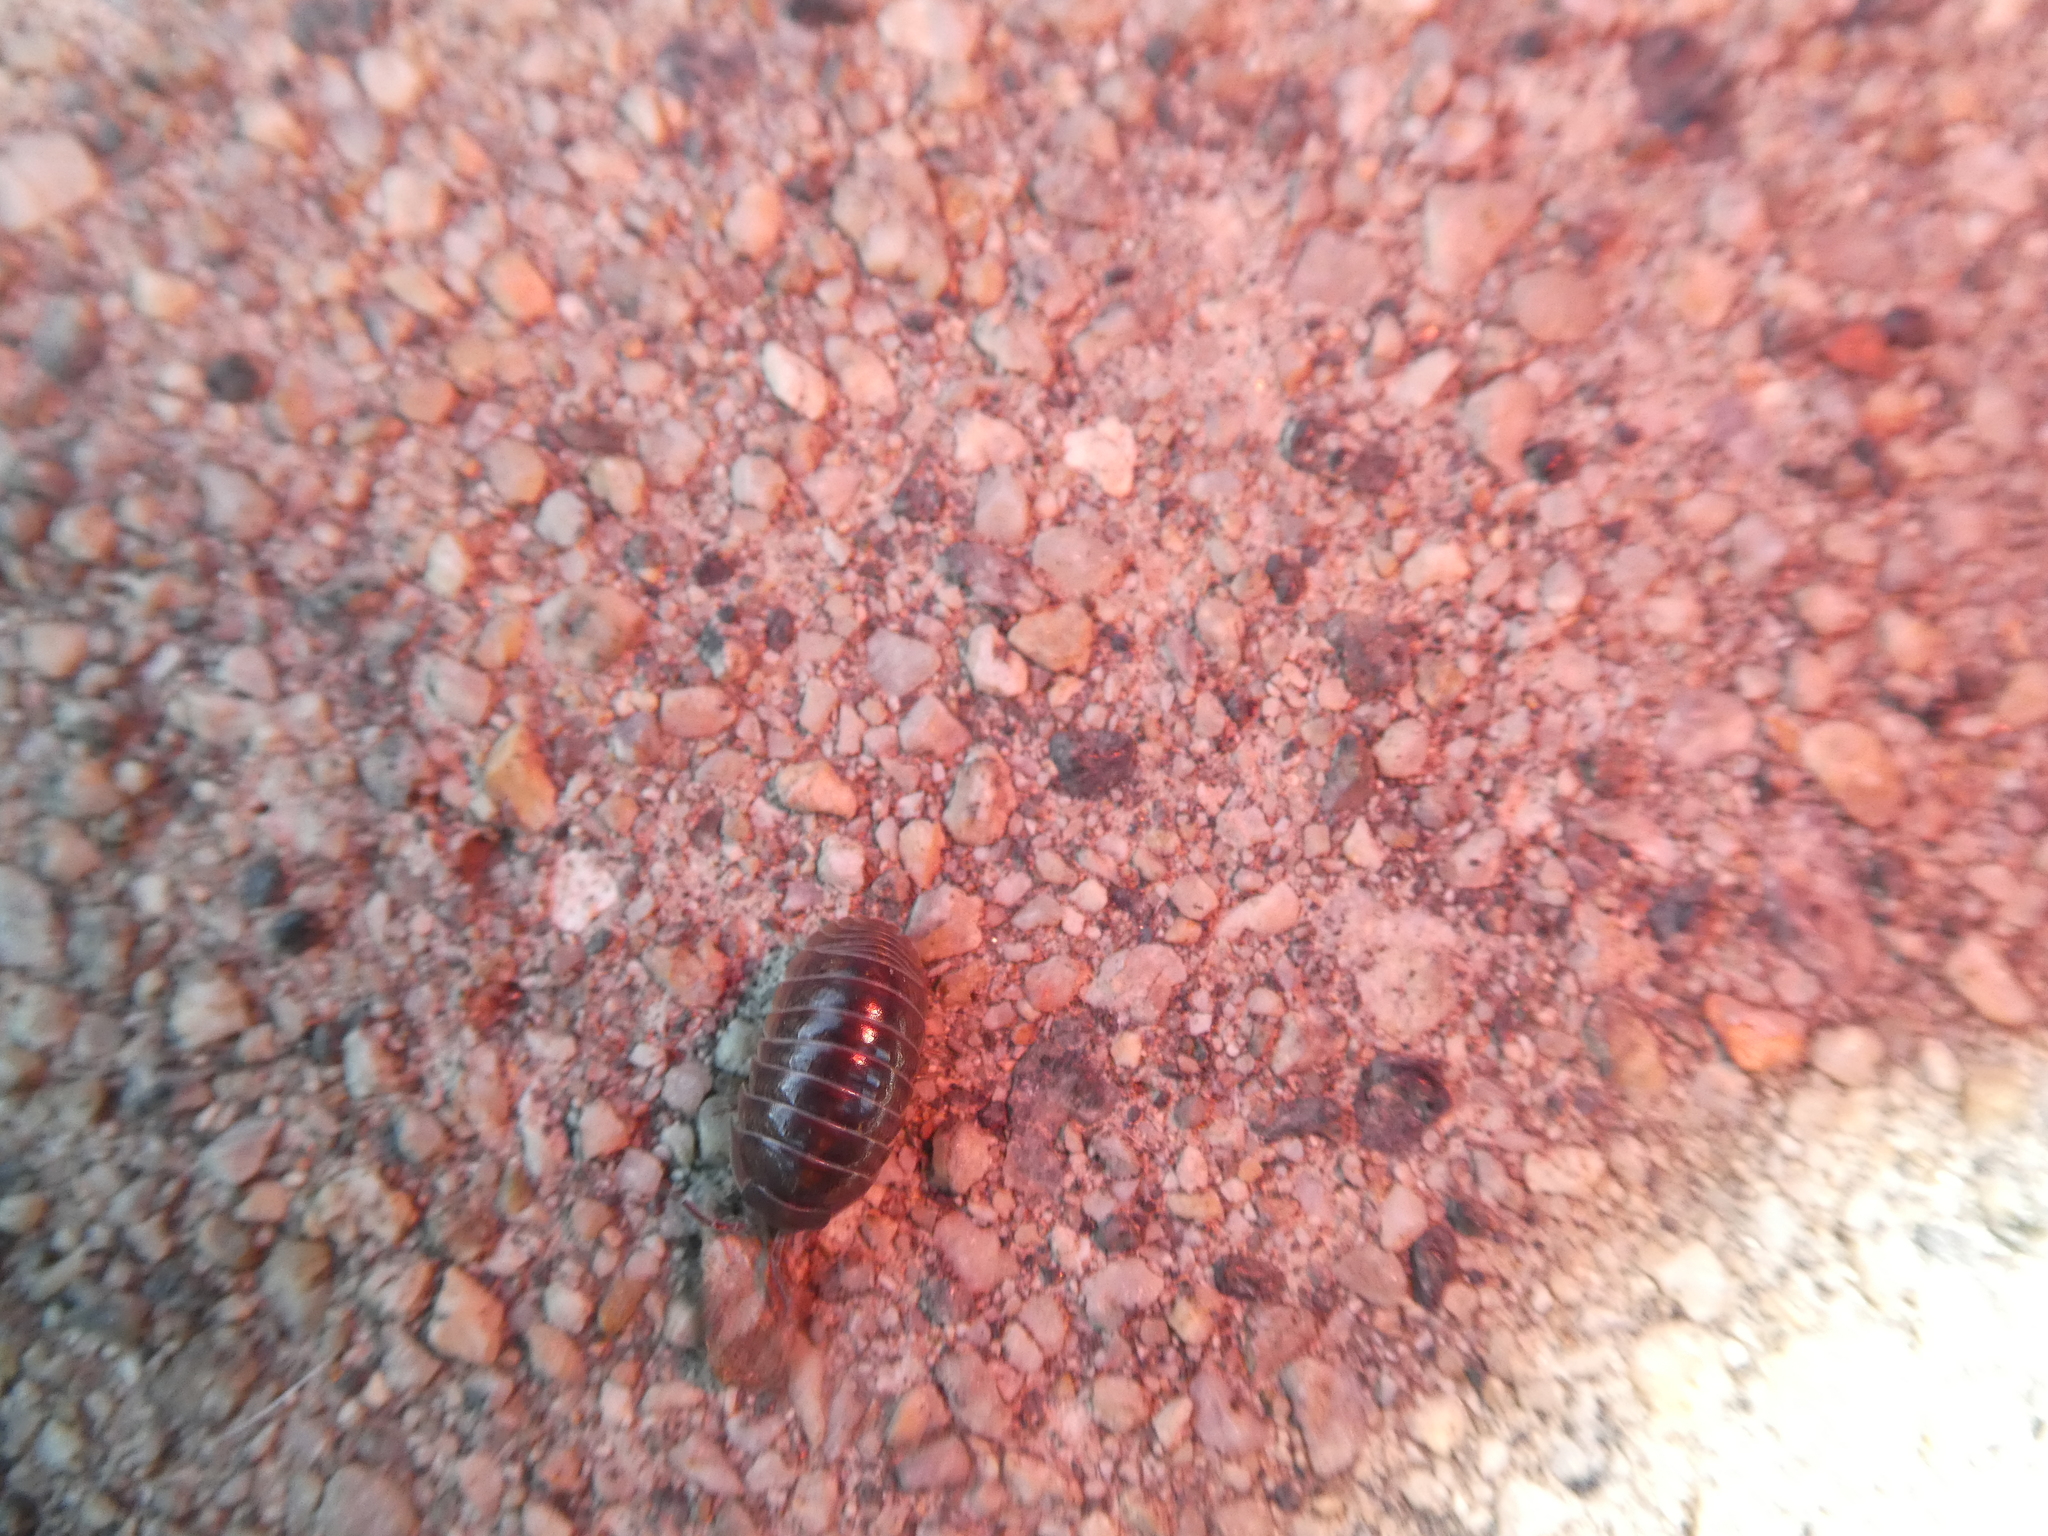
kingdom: Animalia
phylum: Arthropoda
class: Malacostraca
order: Isopoda
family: Armadillidiidae
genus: Armadillidium
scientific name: Armadillidium vulgare
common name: Common pill woodlouse
